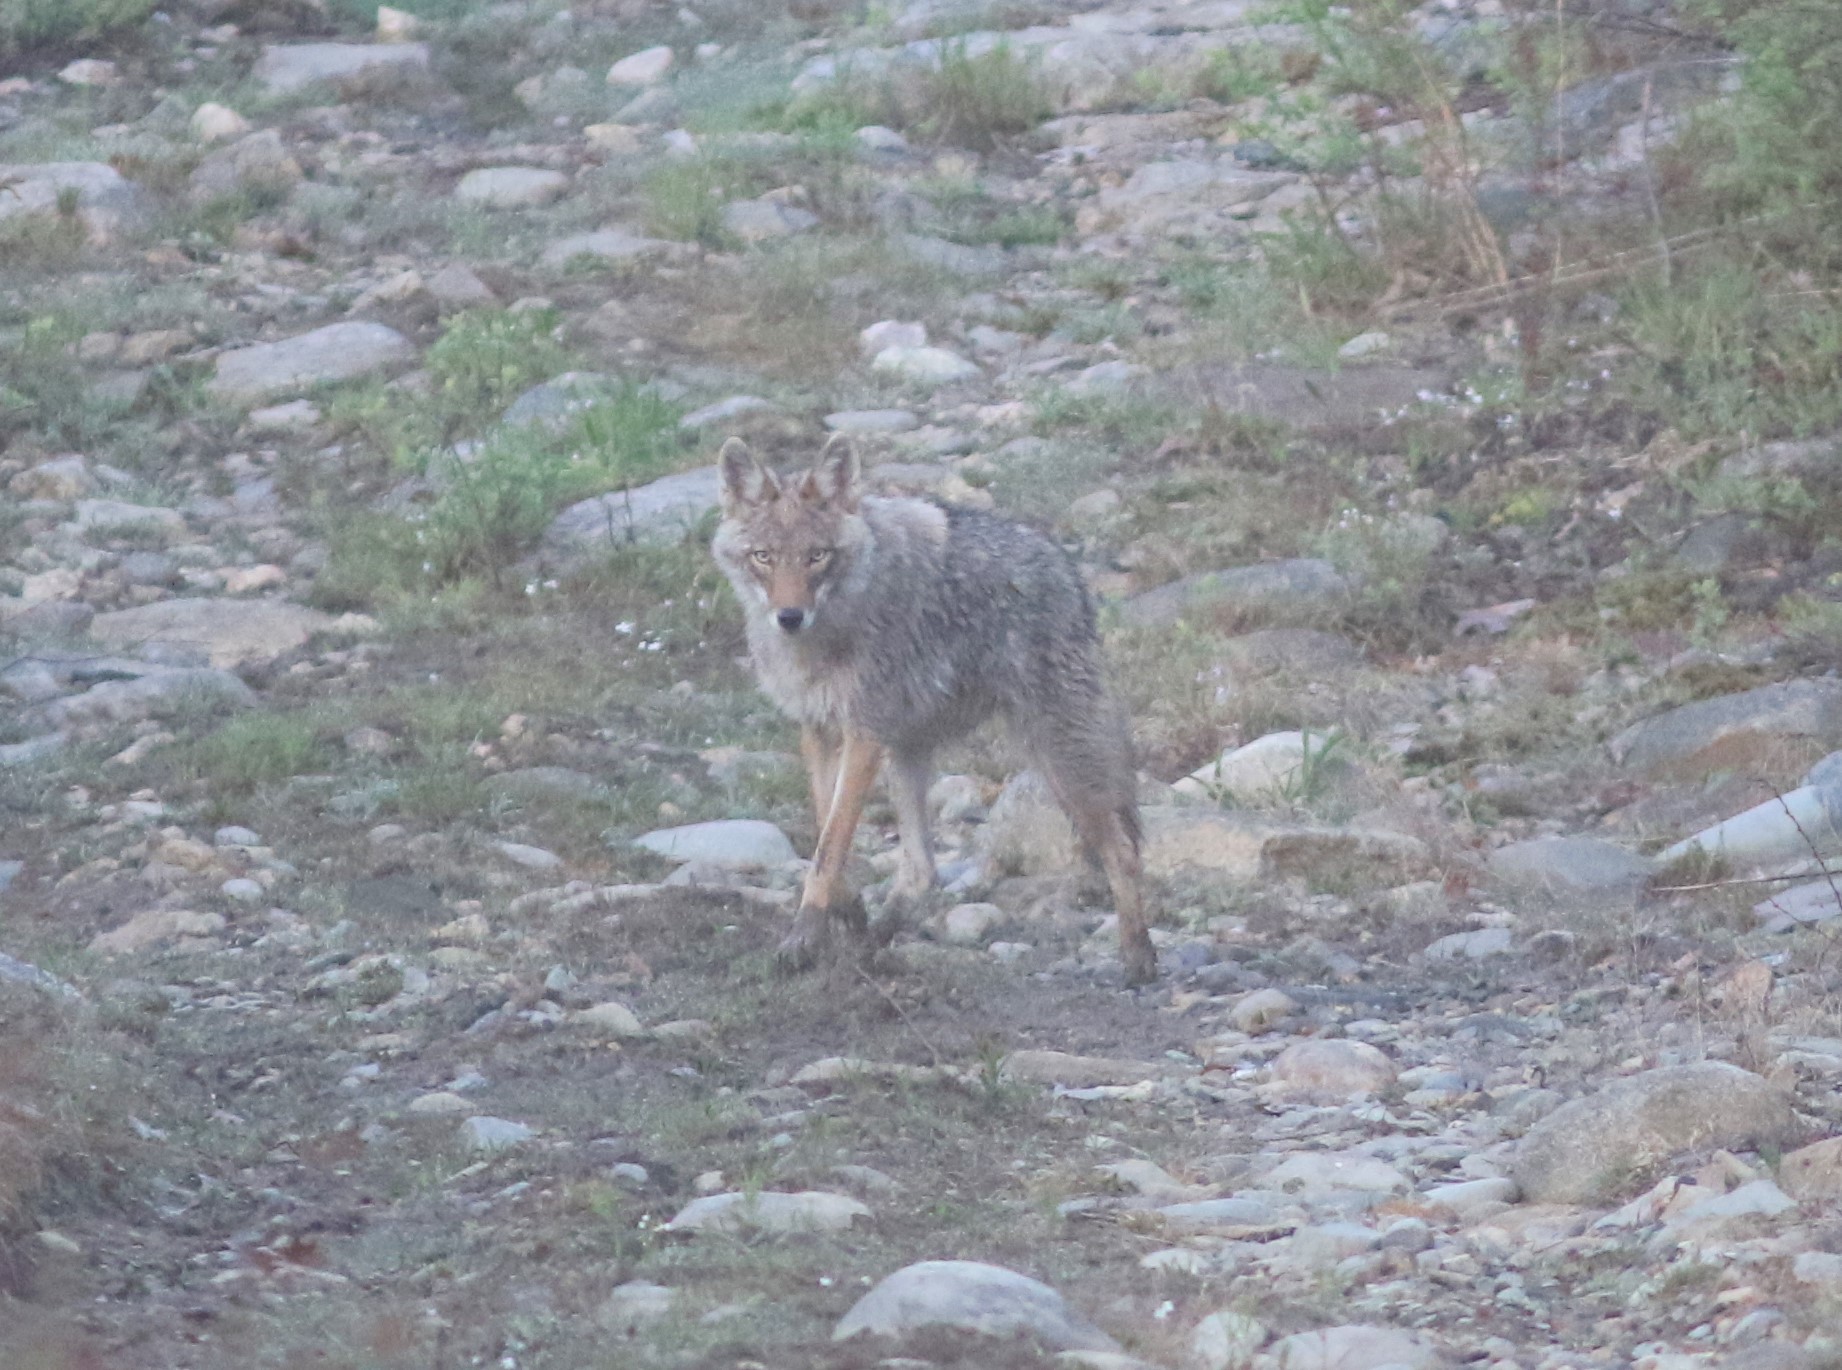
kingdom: Animalia
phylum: Chordata
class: Mammalia
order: Carnivora
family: Canidae
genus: Canis
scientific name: Canis latrans
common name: Coyote
